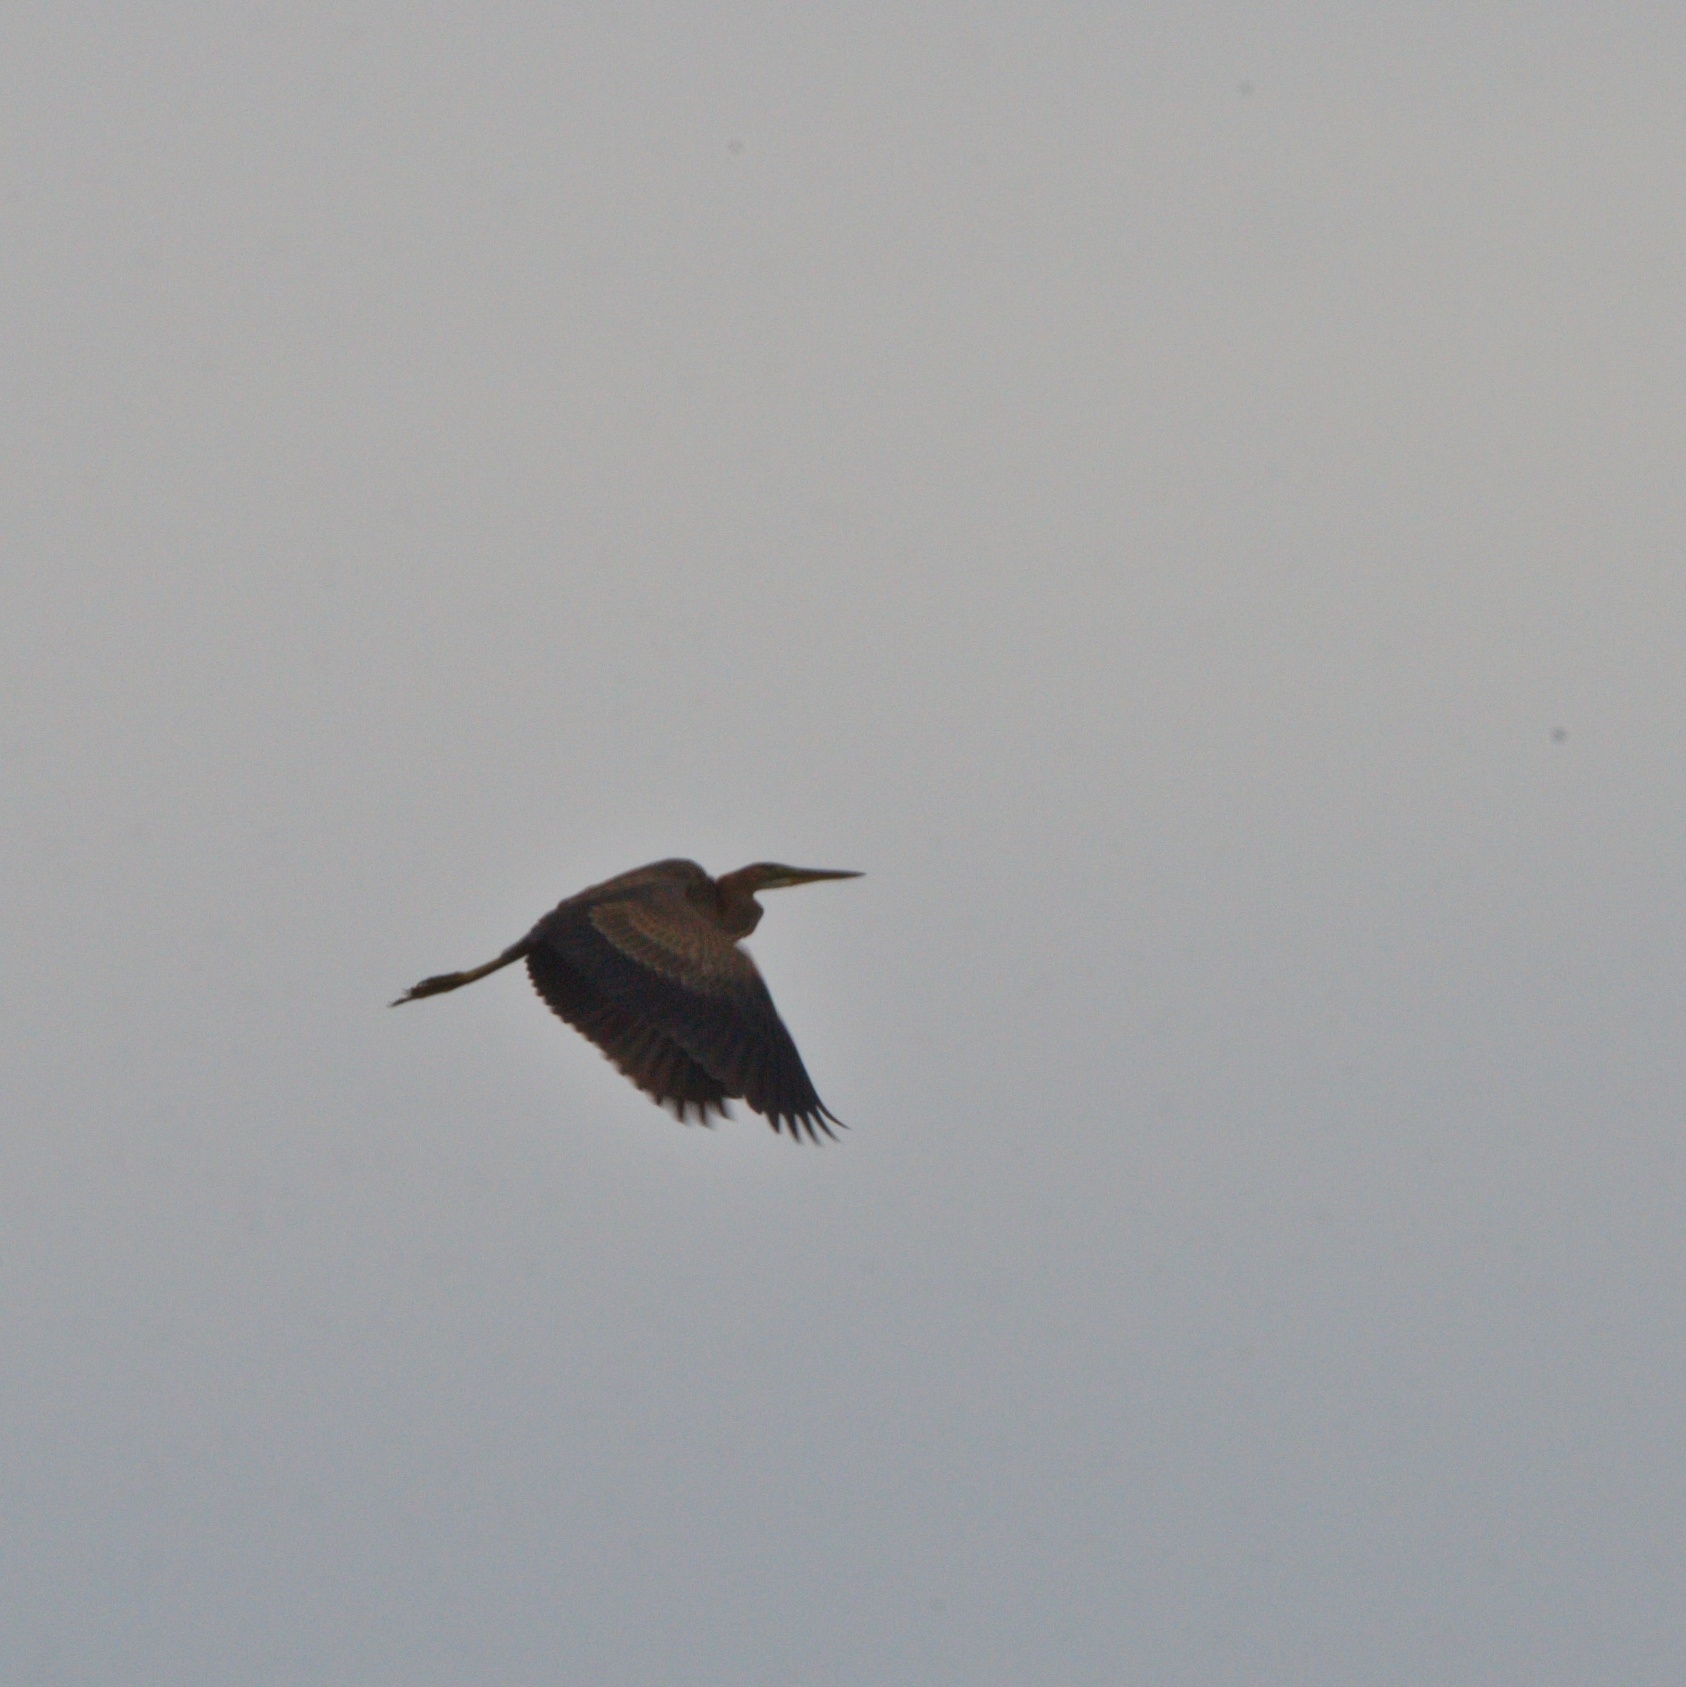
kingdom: Animalia
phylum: Chordata
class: Aves
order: Pelecaniformes
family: Ardeidae
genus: Ardea
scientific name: Ardea purpurea
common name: Purple heron
